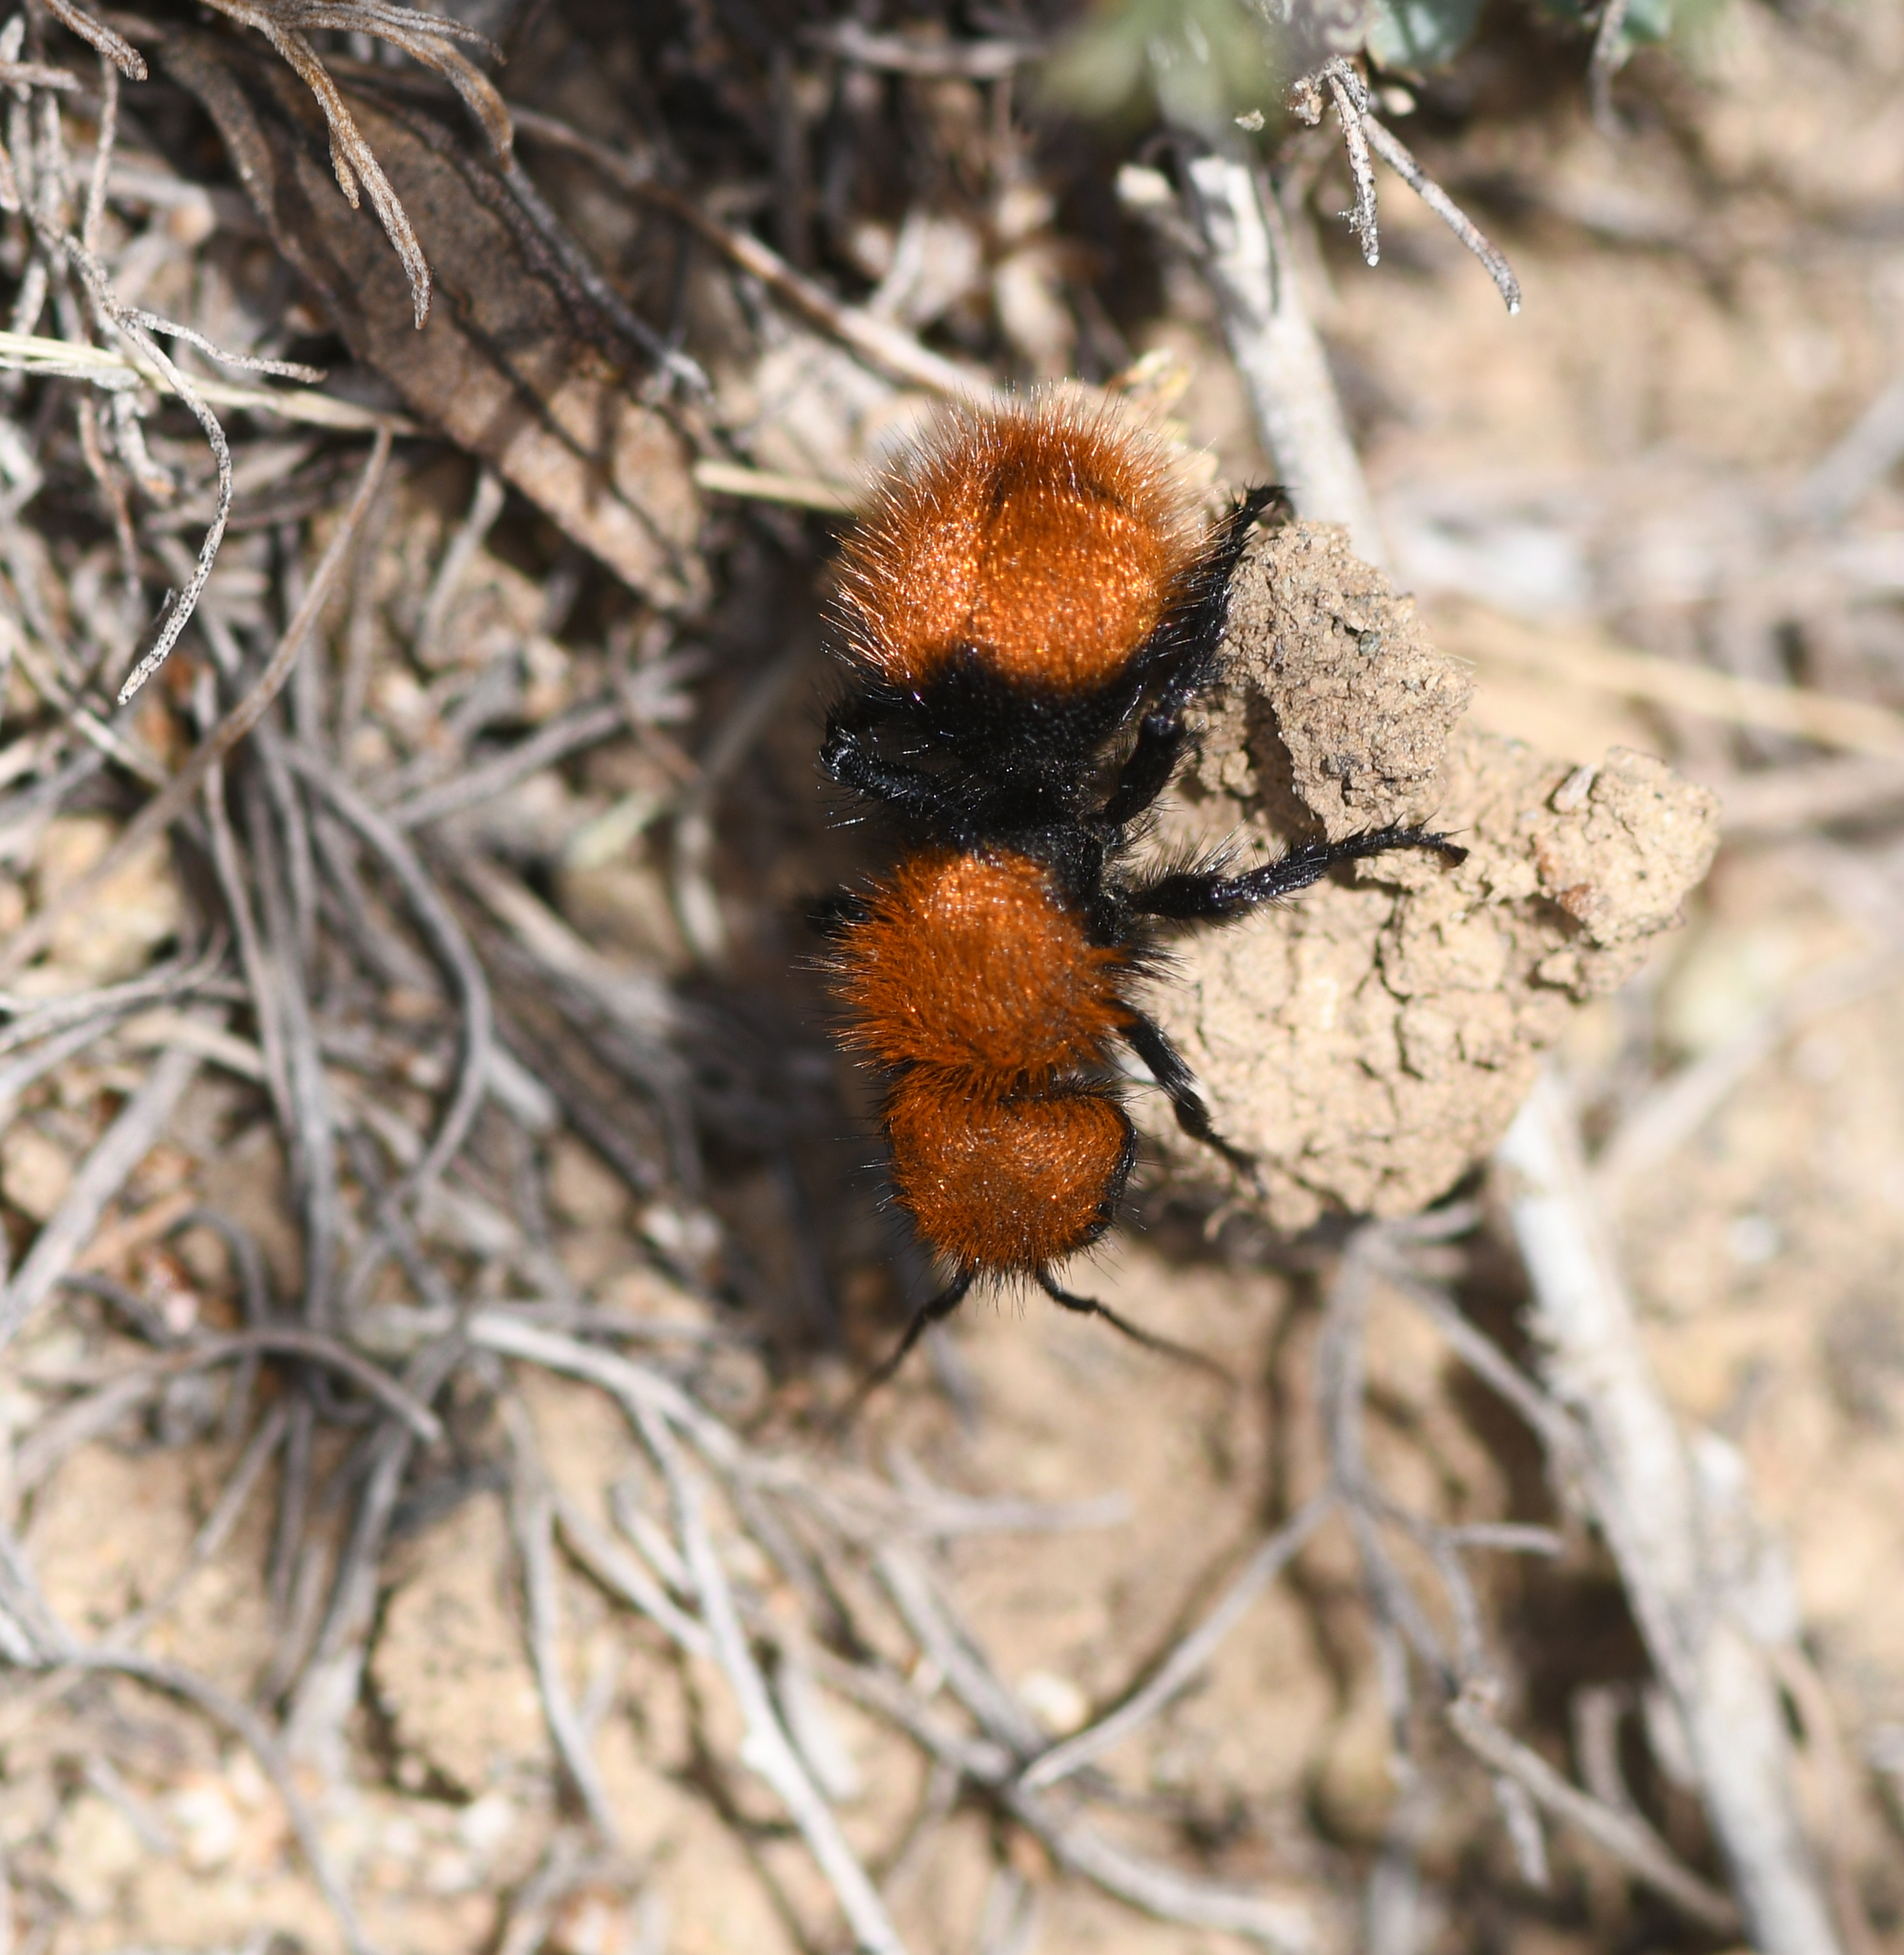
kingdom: Animalia
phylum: Arthropoda
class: Insecta
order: Hymenoptera
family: Mutillidae
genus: Dasymutilla
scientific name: Dasymutilla
